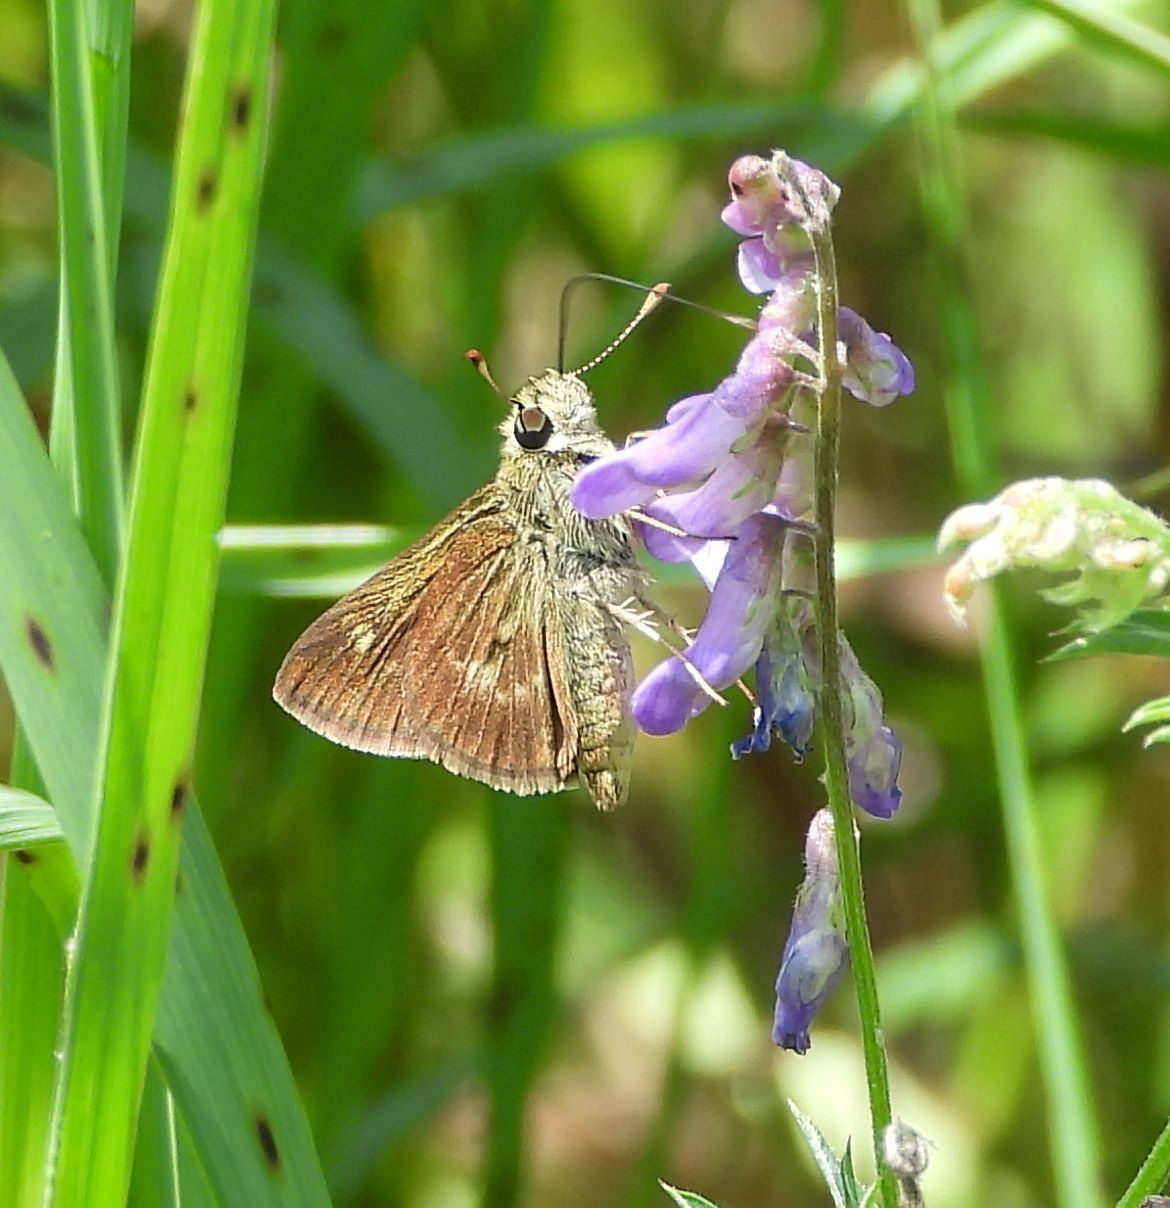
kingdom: Animalia
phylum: Arthropoda
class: Insecta
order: Lepidoptera
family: Hesperiidae
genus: Polites
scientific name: Polites egeremet
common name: Northern broken-dash
